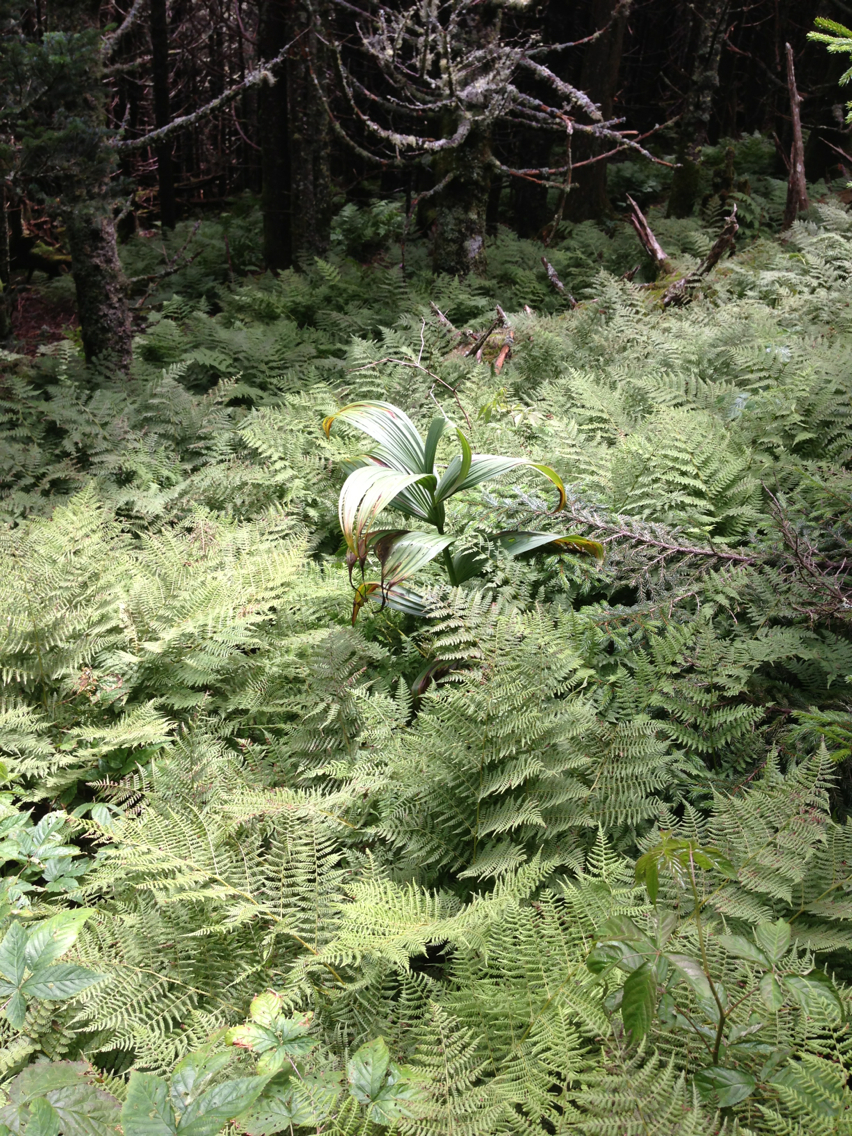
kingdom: Plantae
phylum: Tracheophyta
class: Liliopsida
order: Liliales
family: Melanthiaceae
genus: Veratrum
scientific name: Veratrum viride
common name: American false hellebore
